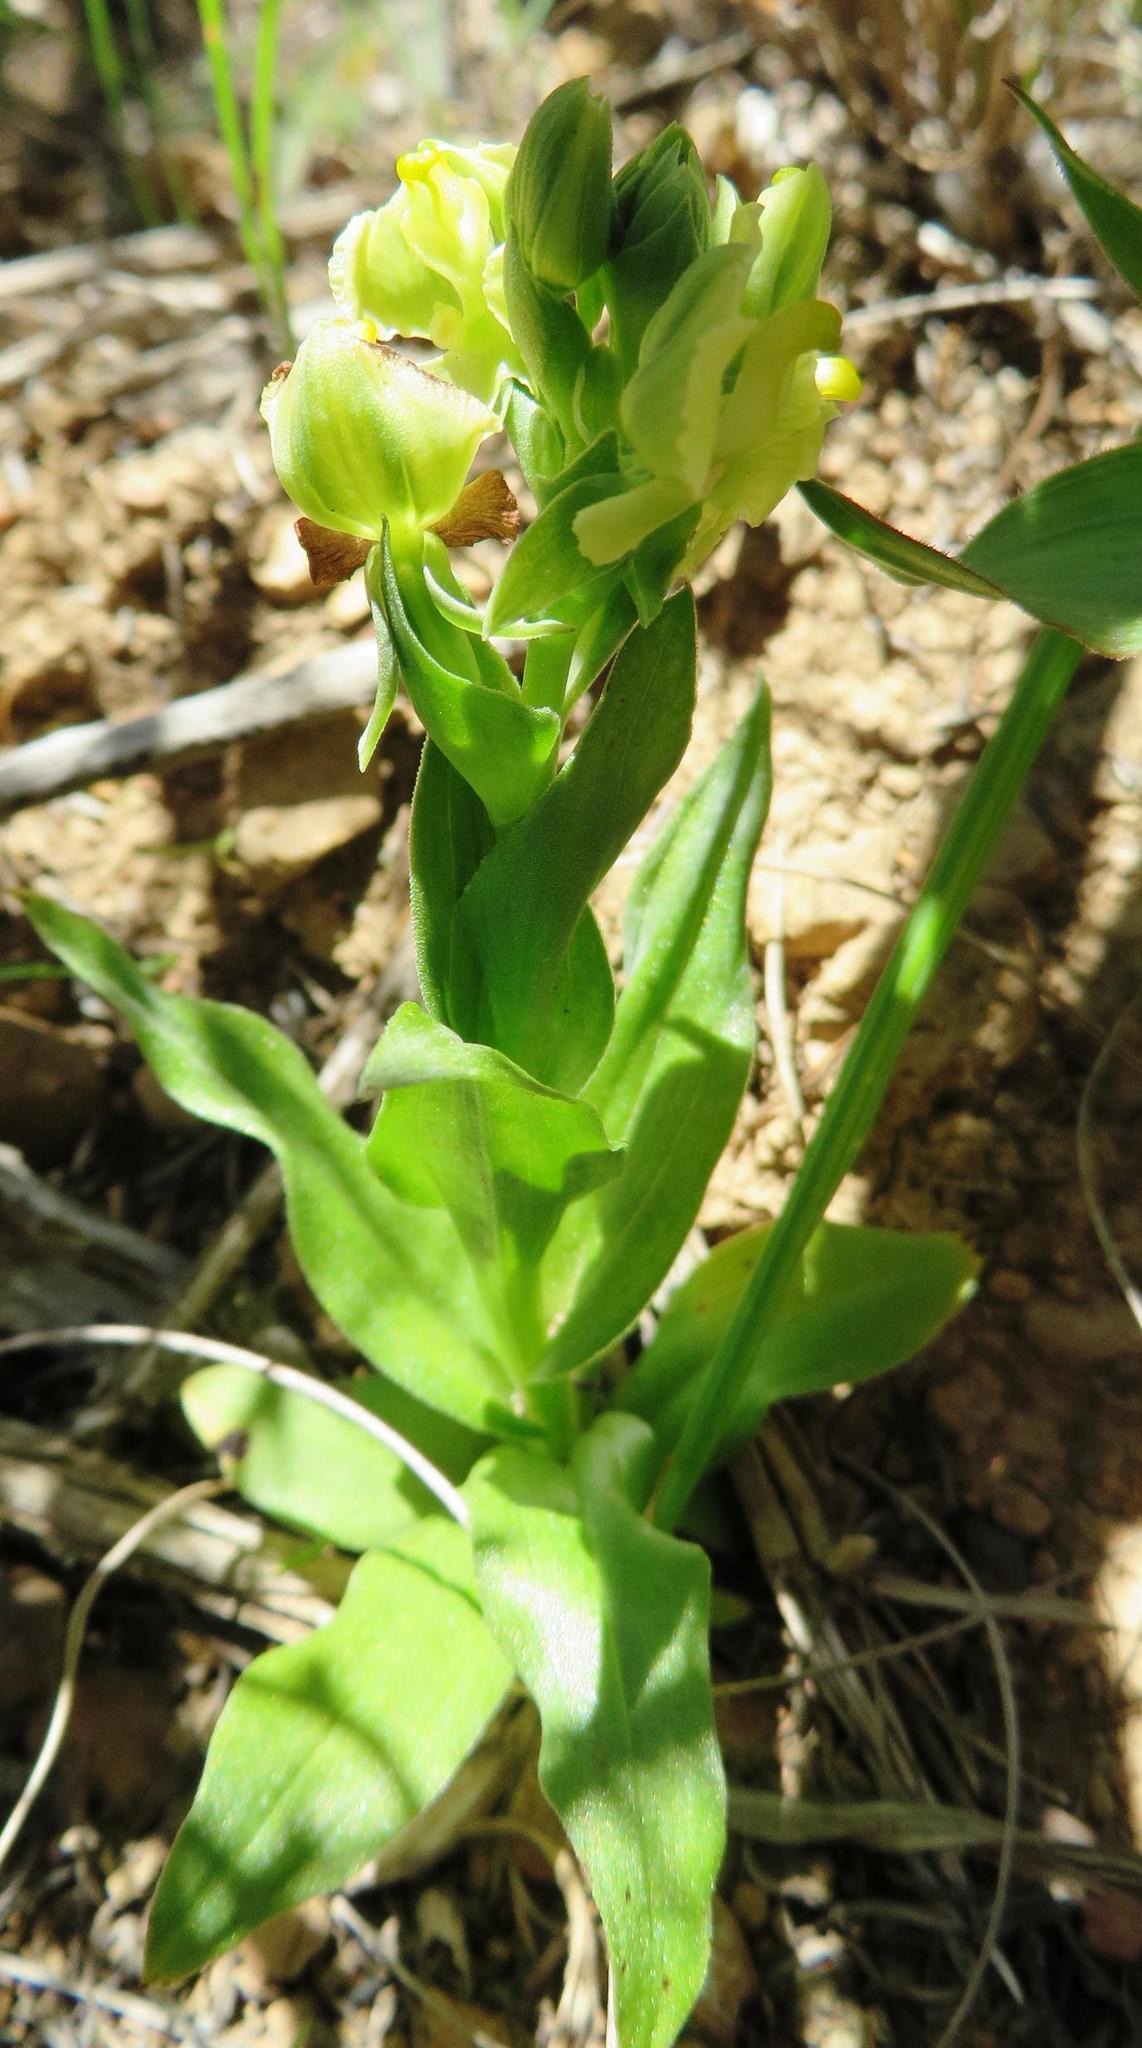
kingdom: Plantae
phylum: Tracheophyta
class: Liliopsida
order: Asparagales
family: Orchidaceae
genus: Pterygodium
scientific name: Pterygodium alatum
